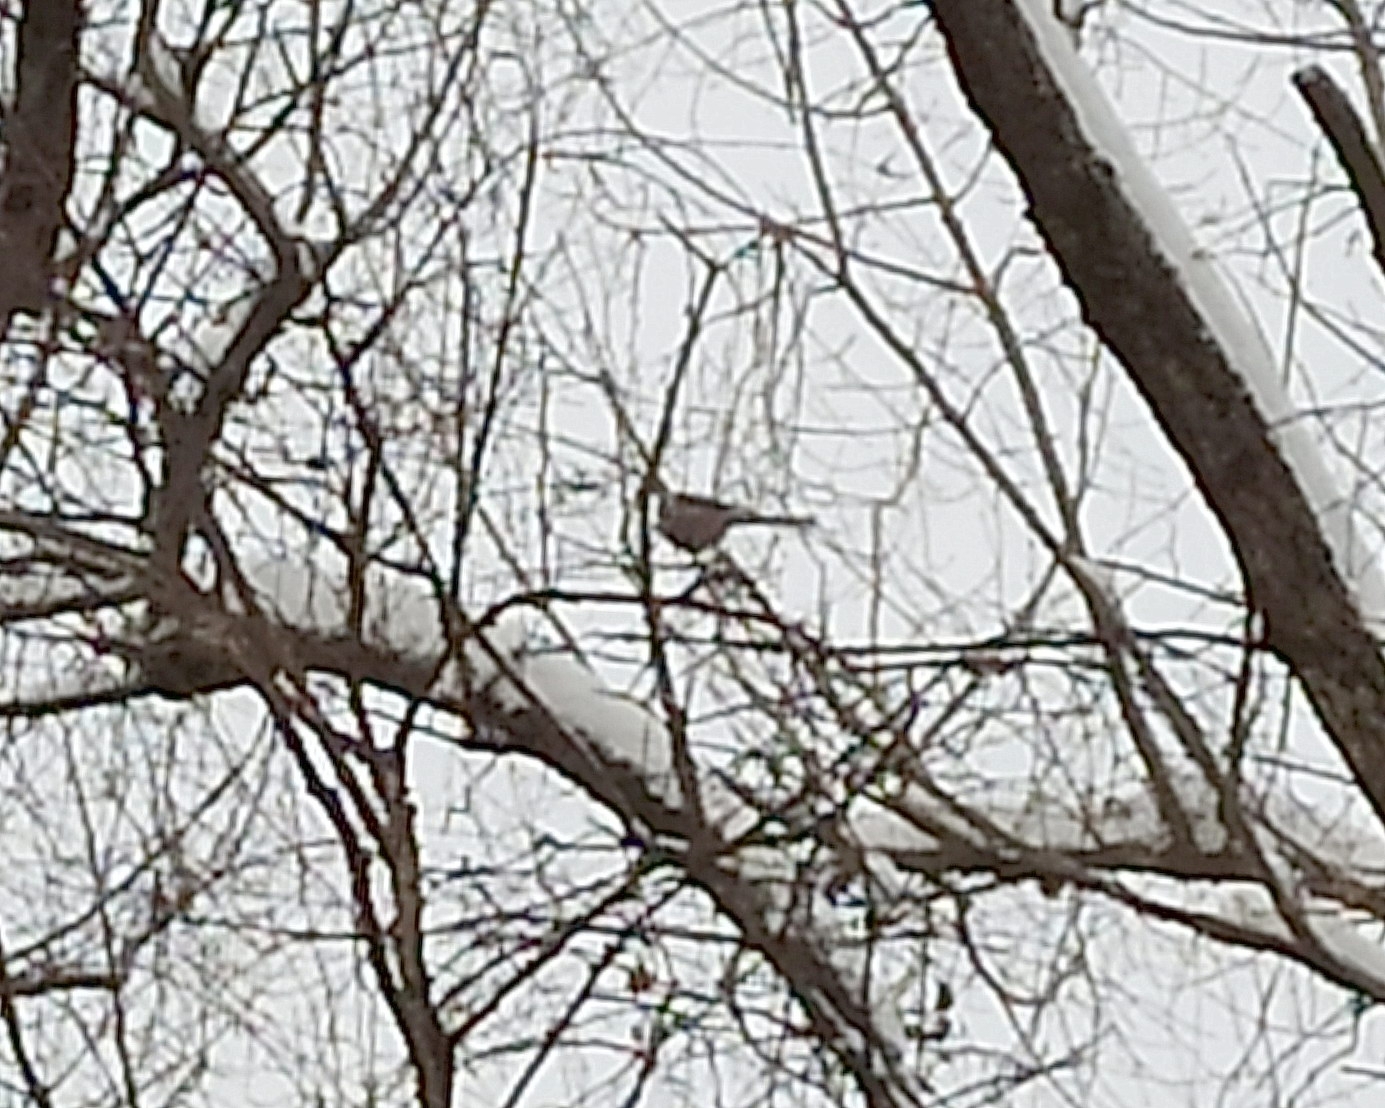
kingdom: Animalia
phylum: Chordata
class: Aves
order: Passeriformes
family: Aegithalidae
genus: Aegithalos
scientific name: Aegithalos caudatus
